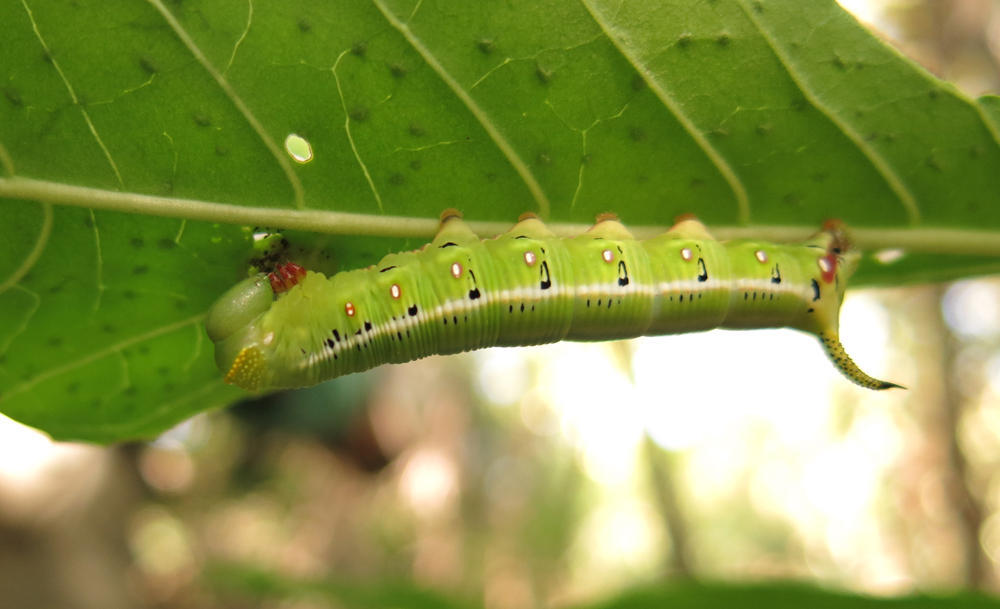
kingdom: Animalia
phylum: Arthropoda
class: Insecta
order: Lepidoptera
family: Sphingidae
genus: Cephonodes
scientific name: Cephonodes hylas
